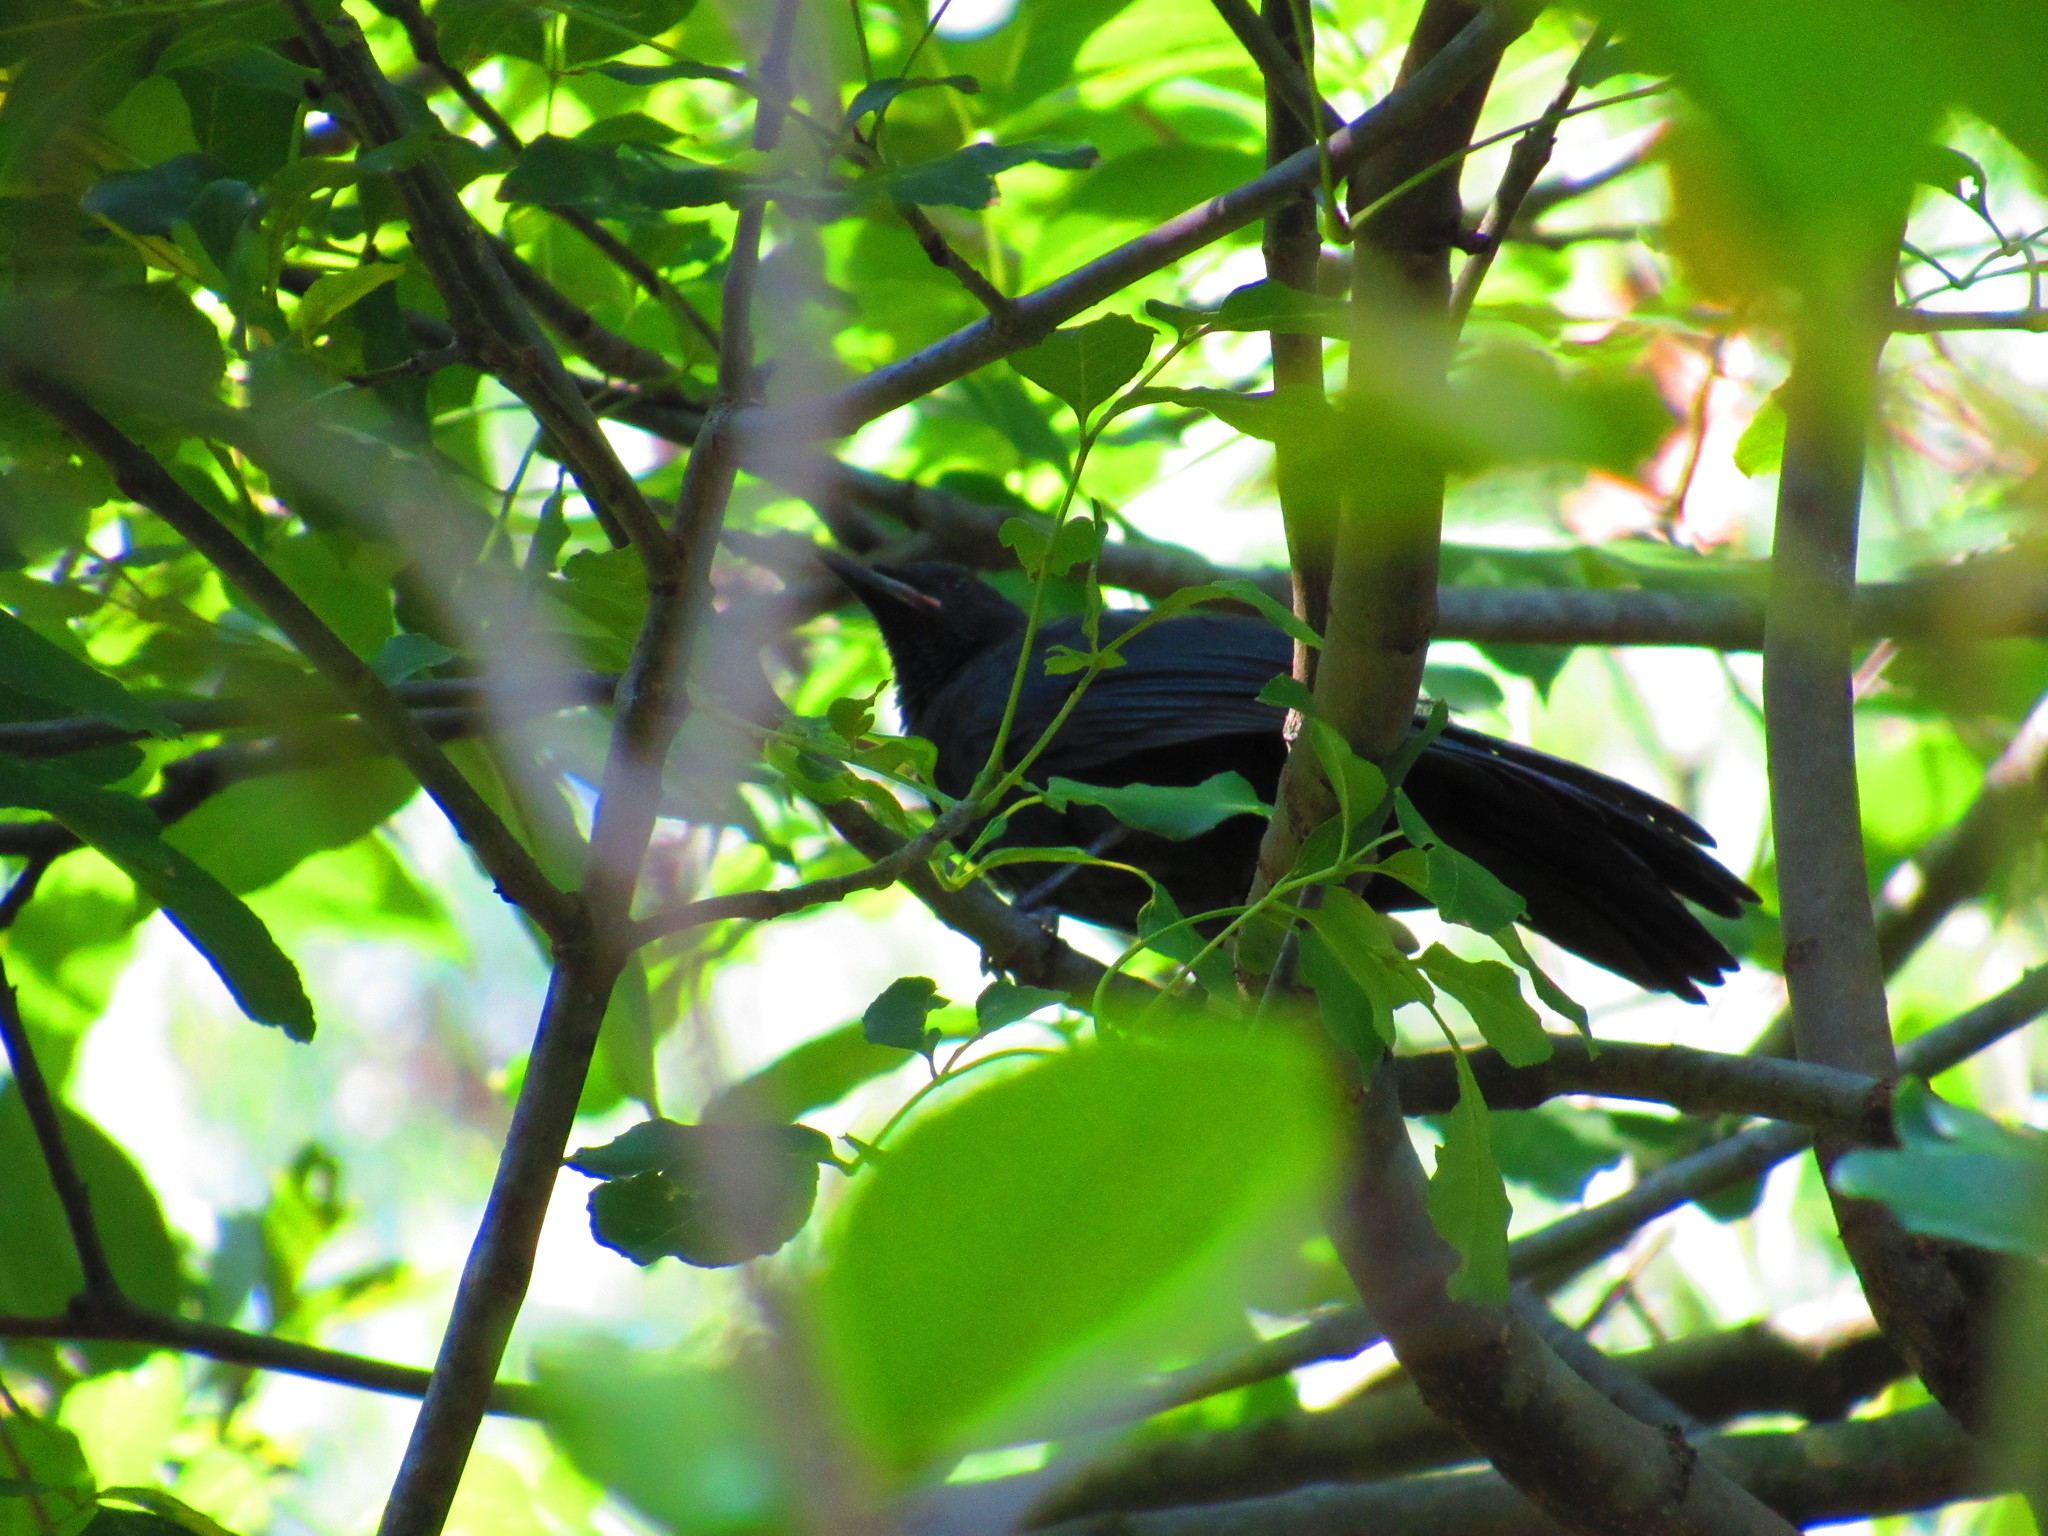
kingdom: Animalia
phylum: Chordata
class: Aves
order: Passeriformes
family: Mimidae
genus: Melanotis
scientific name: Melanotis caerulescens
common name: Blue mockingbird
